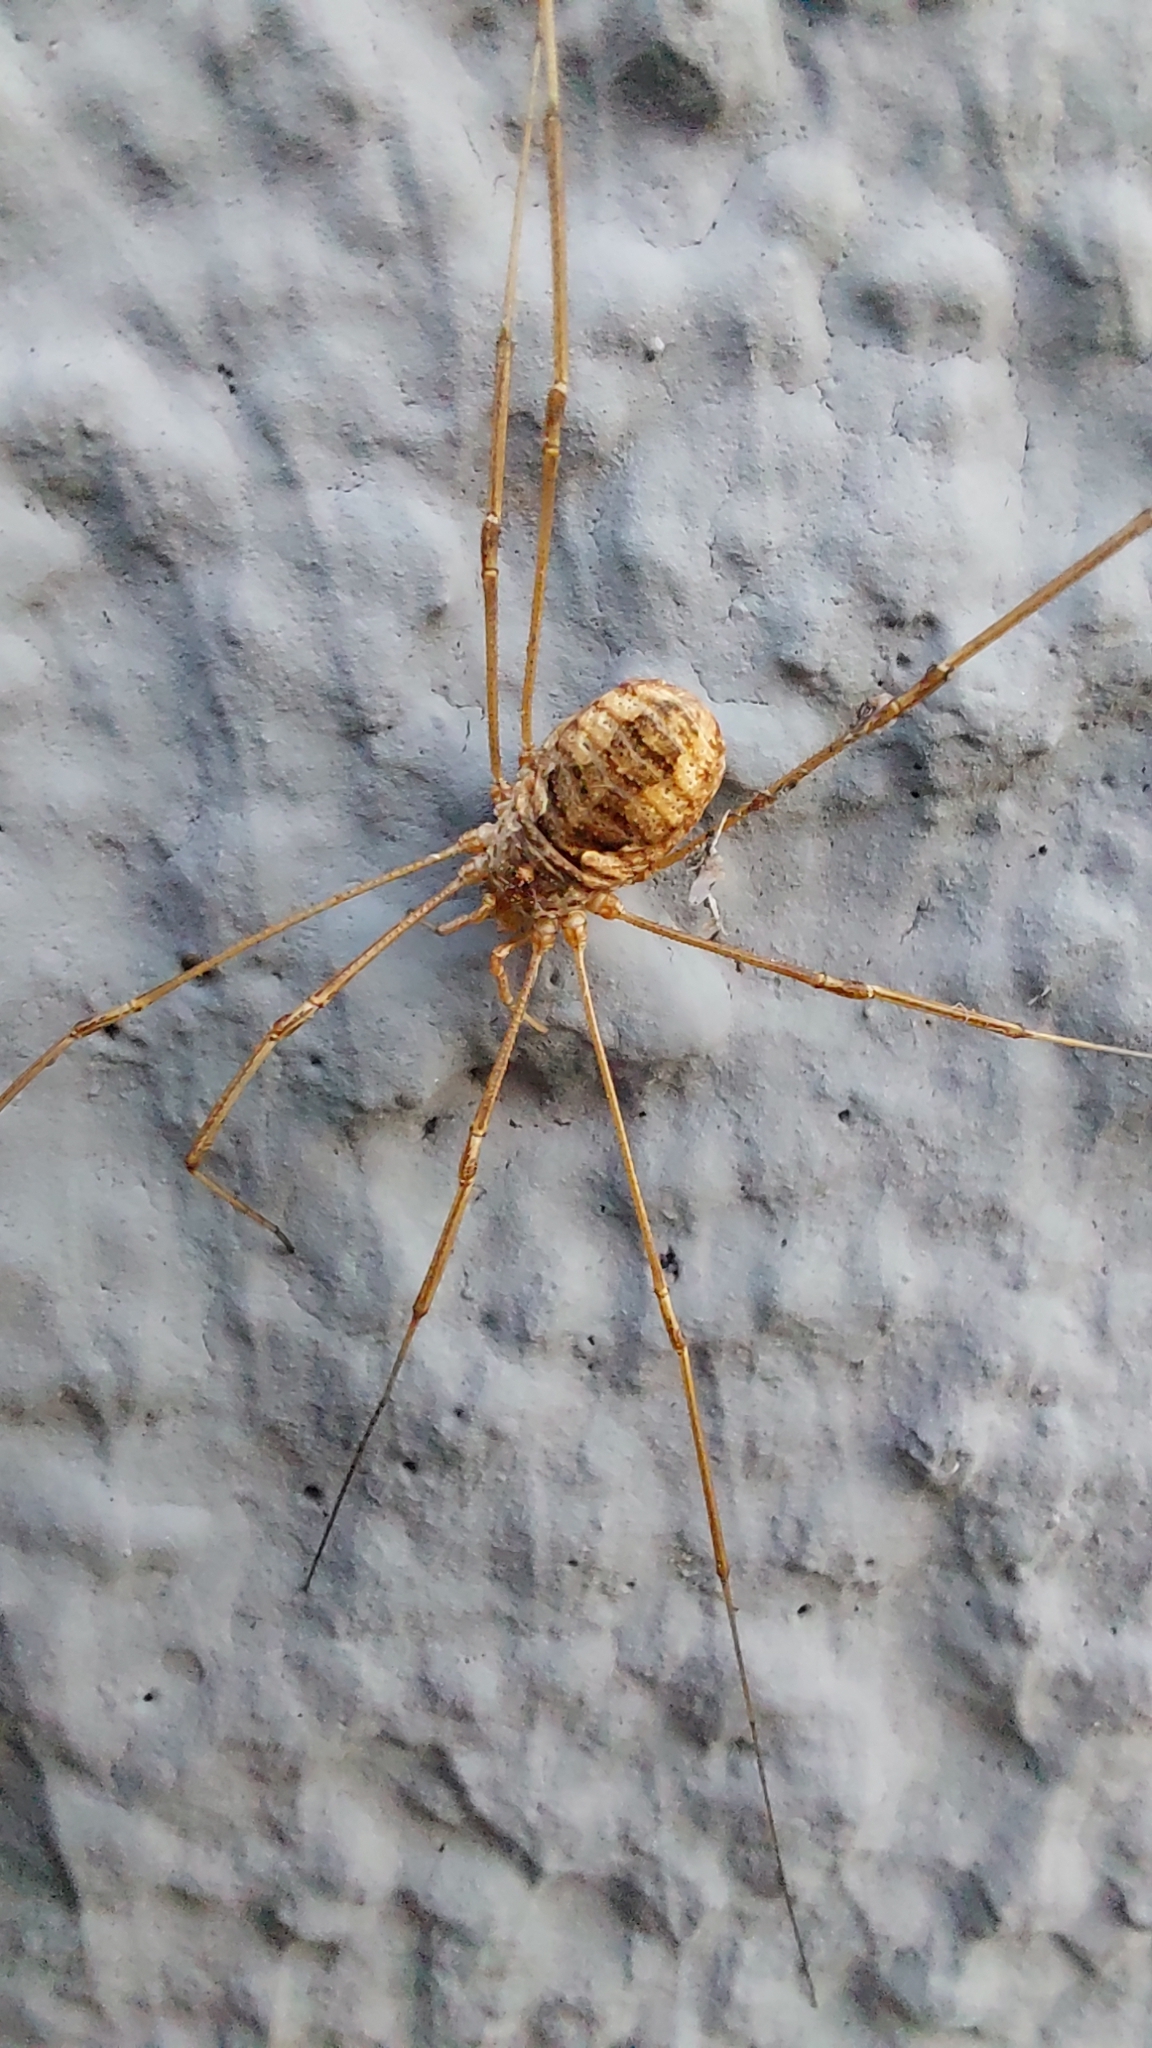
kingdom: Animalia
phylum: Arthropoda
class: Arachnida
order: Opiliones
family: Phalangiidae
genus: Phalangium
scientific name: Phalangium opilio
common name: Daddy longleg
